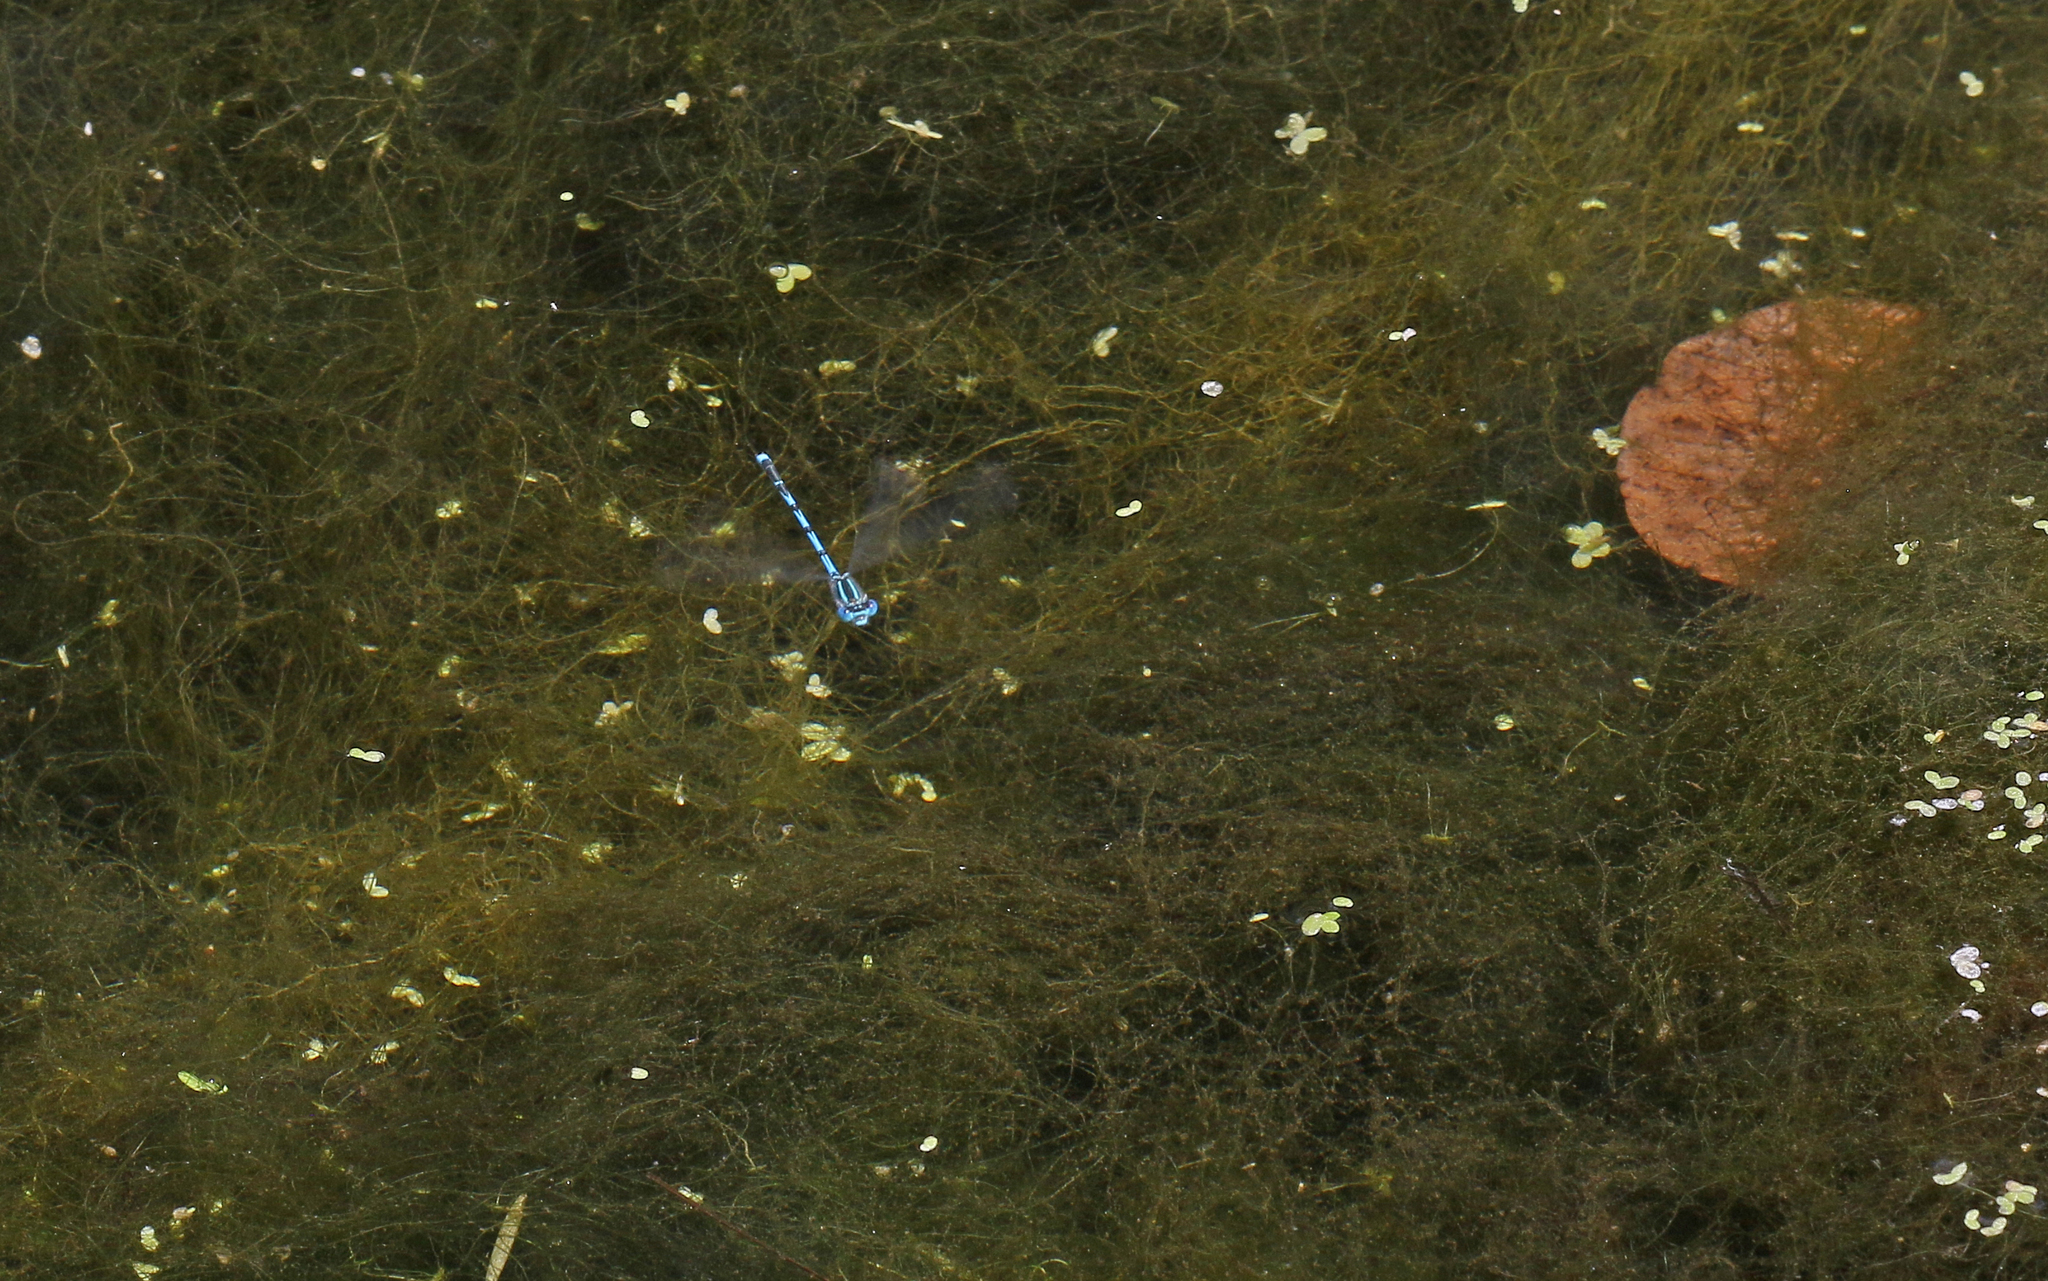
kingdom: Animalia
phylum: Arthropoda
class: Insecta
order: Odonata
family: Coenagrionidae
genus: Erythromma
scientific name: Erythromma lindenii
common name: Blue-eye
